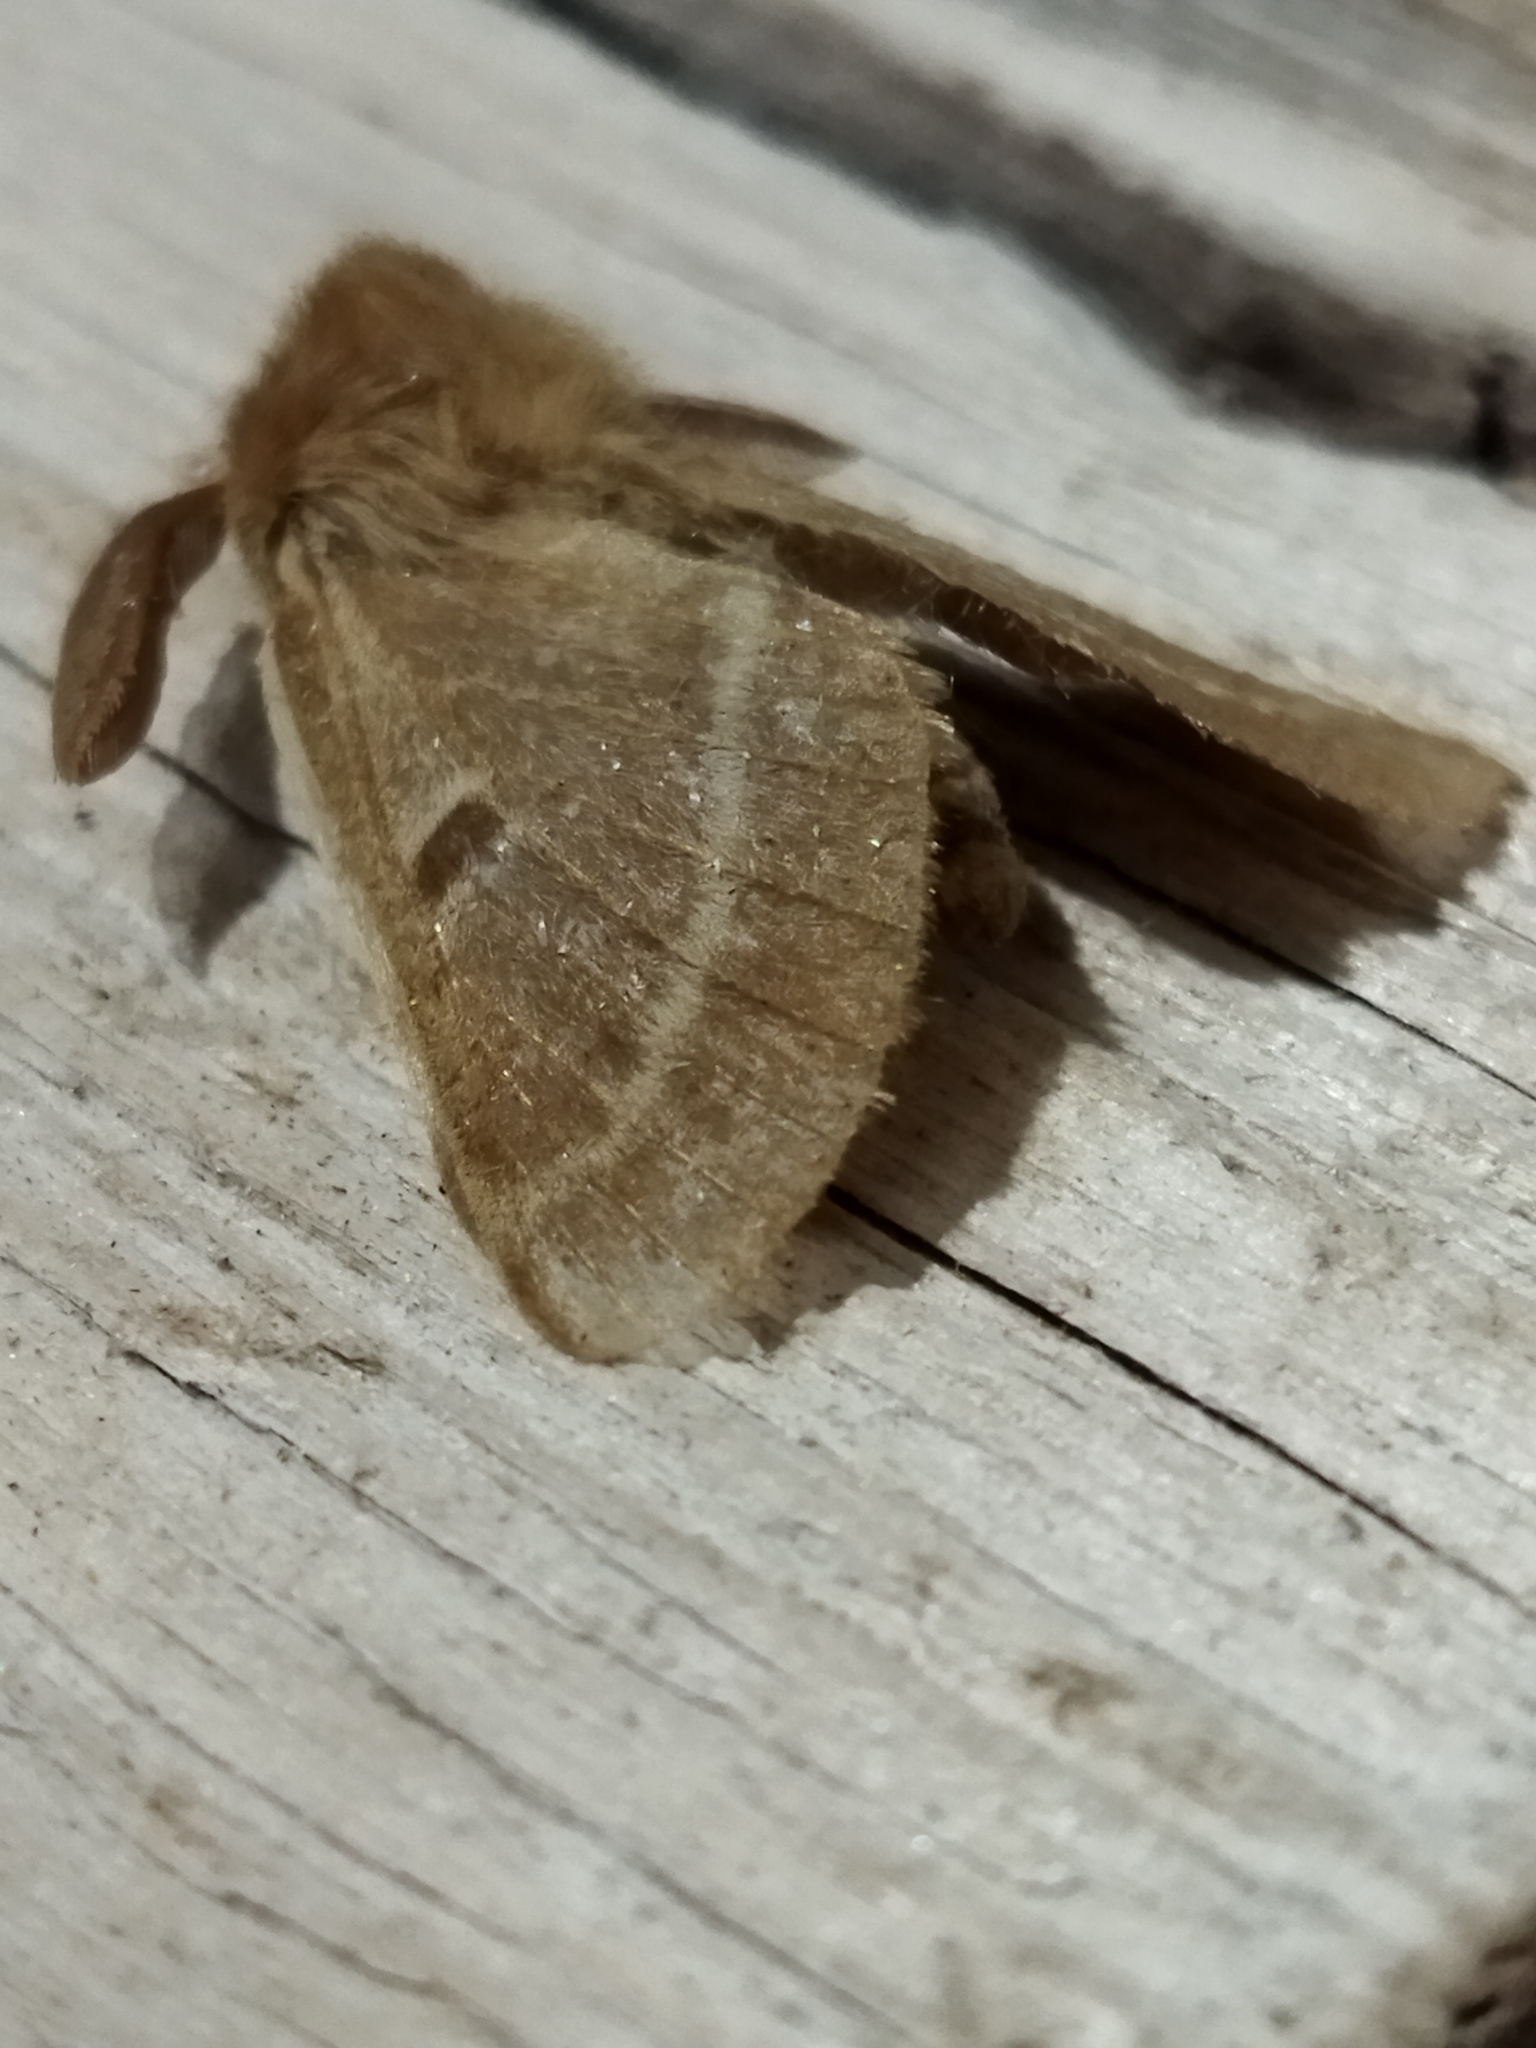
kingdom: Animalia
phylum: Arthropoda
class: Insecta
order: Lepidoptera
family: Brahmaeidae
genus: Lemonia
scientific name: Lemonia balcanica
